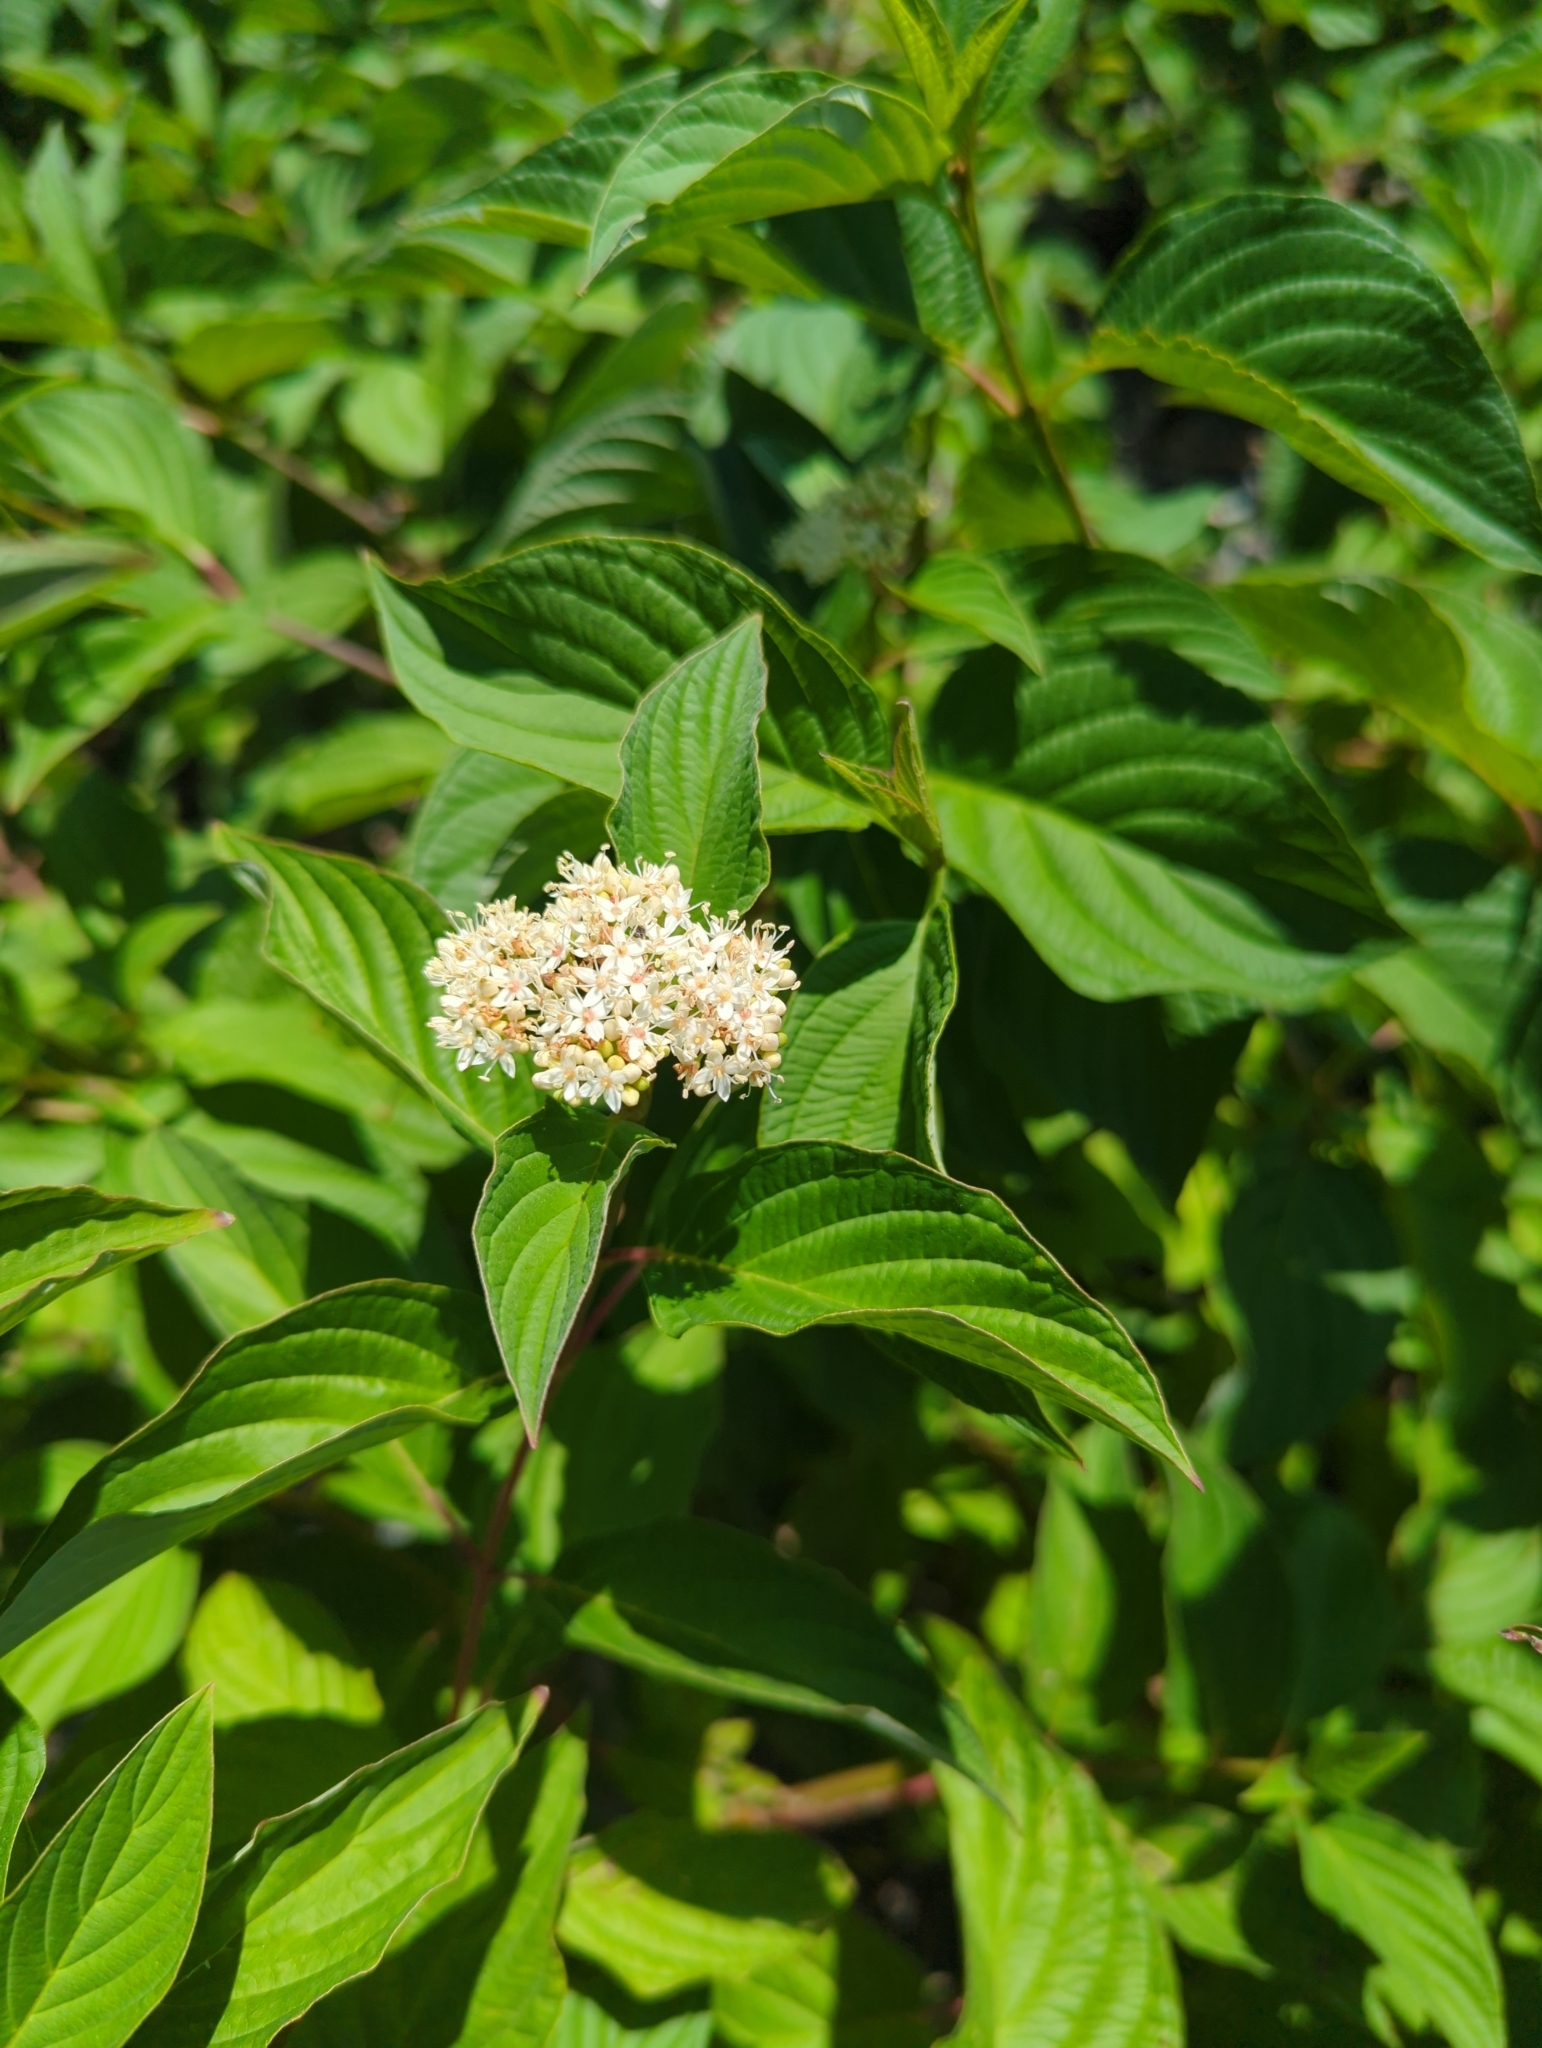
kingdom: Plantae
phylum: Tracheophyta
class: Magnoliopsida
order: Cornales
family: Cornaceae
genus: Cornus
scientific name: Cornus sericea
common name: Red-osier dogwood
